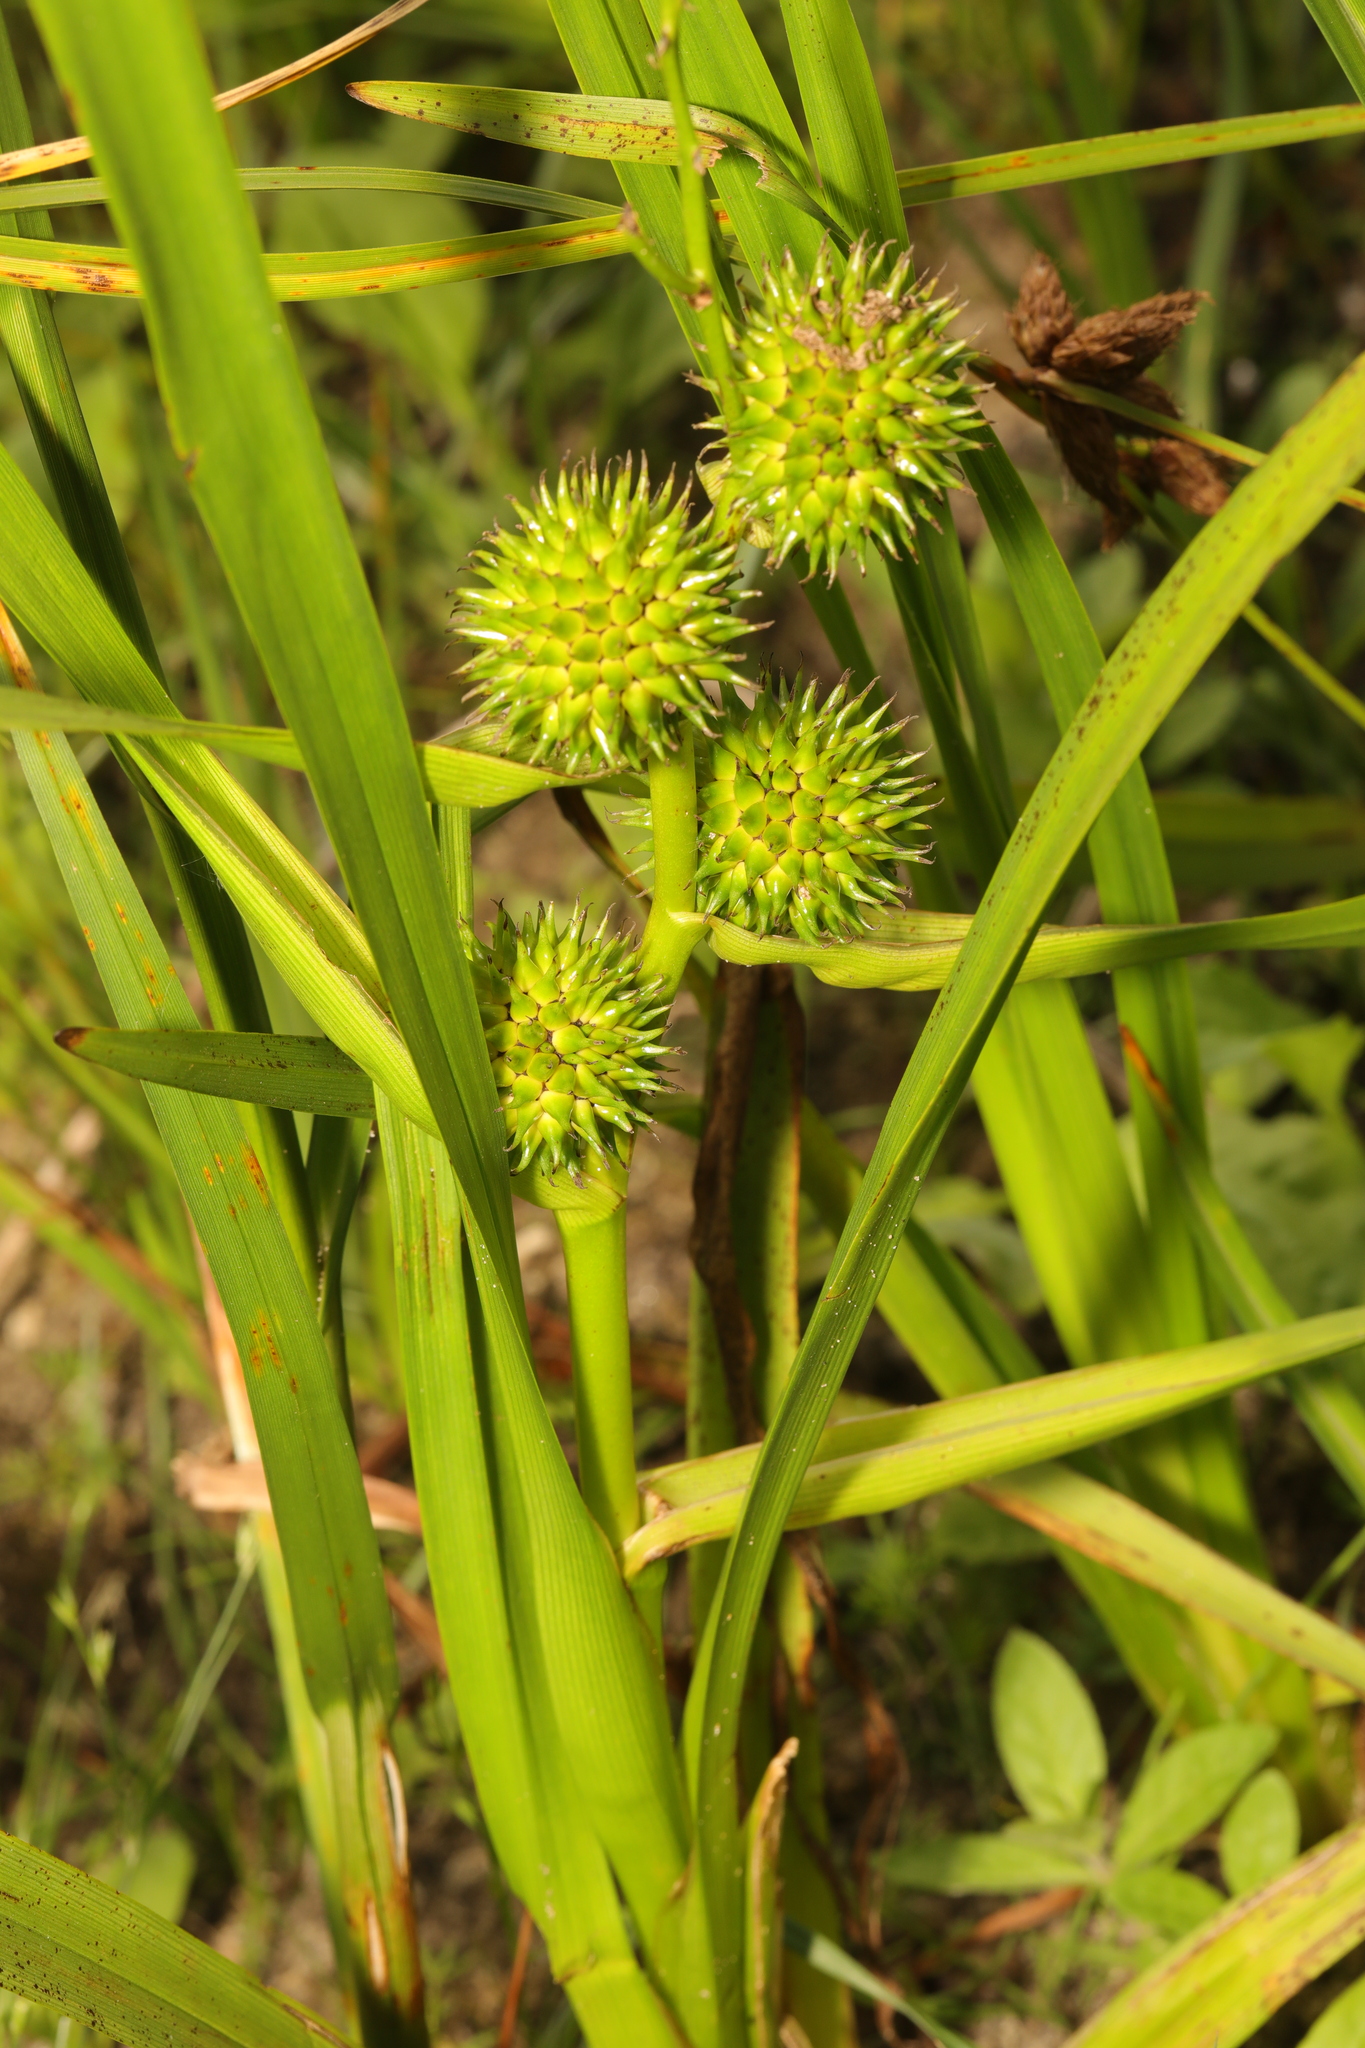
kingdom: Plantae
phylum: Tracheophyta
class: Liliopsida
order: Poales
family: Typhaceae
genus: Sparganium
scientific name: Sparganium erectum
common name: Branched bur-reed
